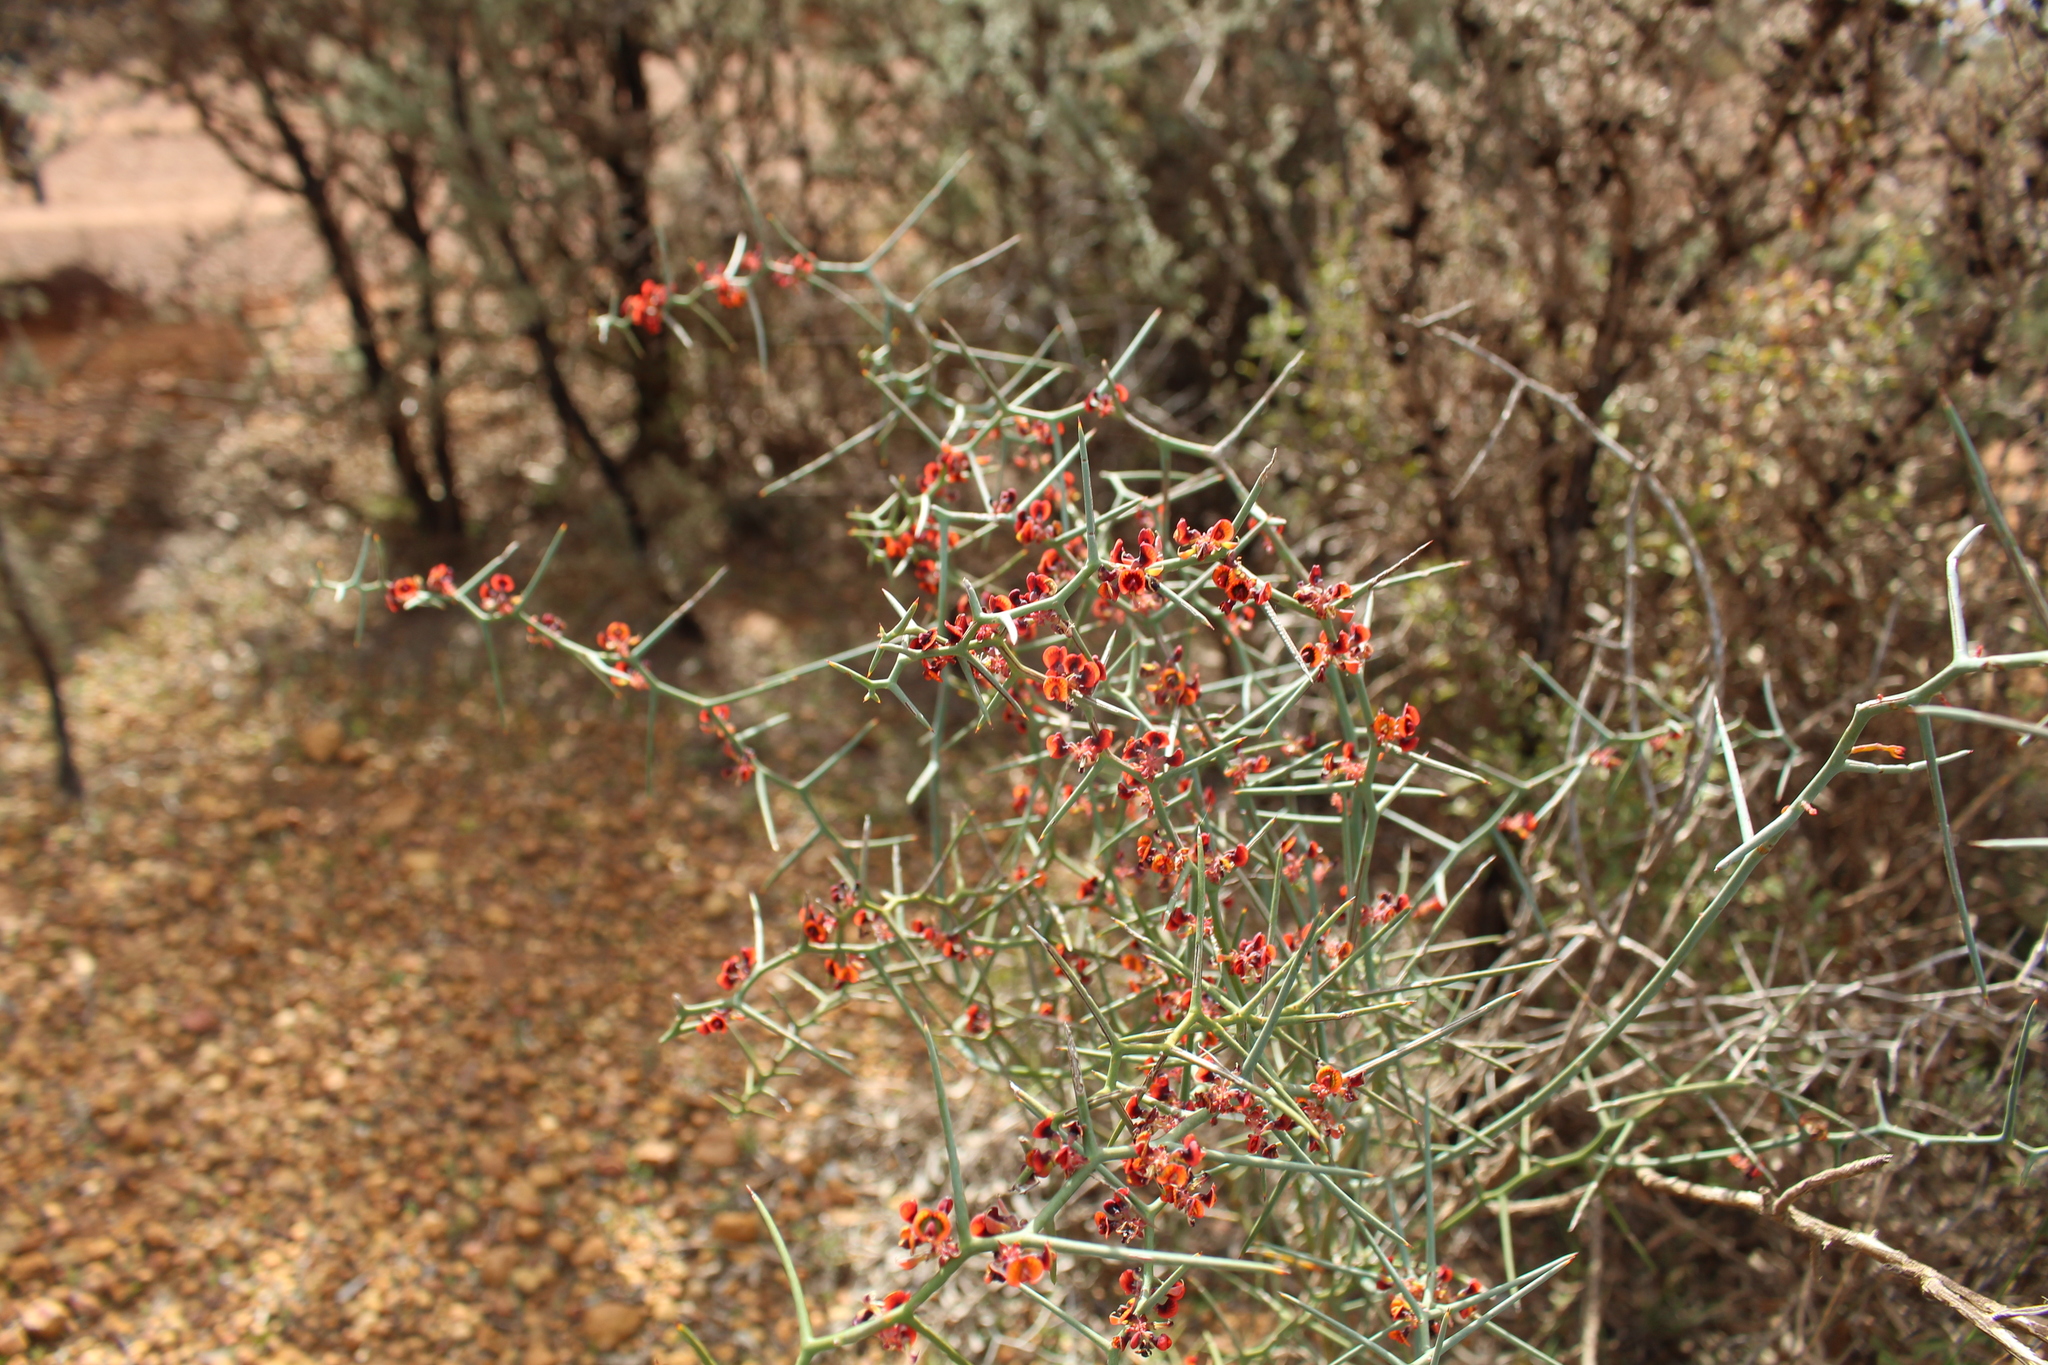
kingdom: Plantae
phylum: Tracheophyta
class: Magnoliopsida
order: Fabales
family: Fabaceae
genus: Daviesia
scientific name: Daviesia incrassata
